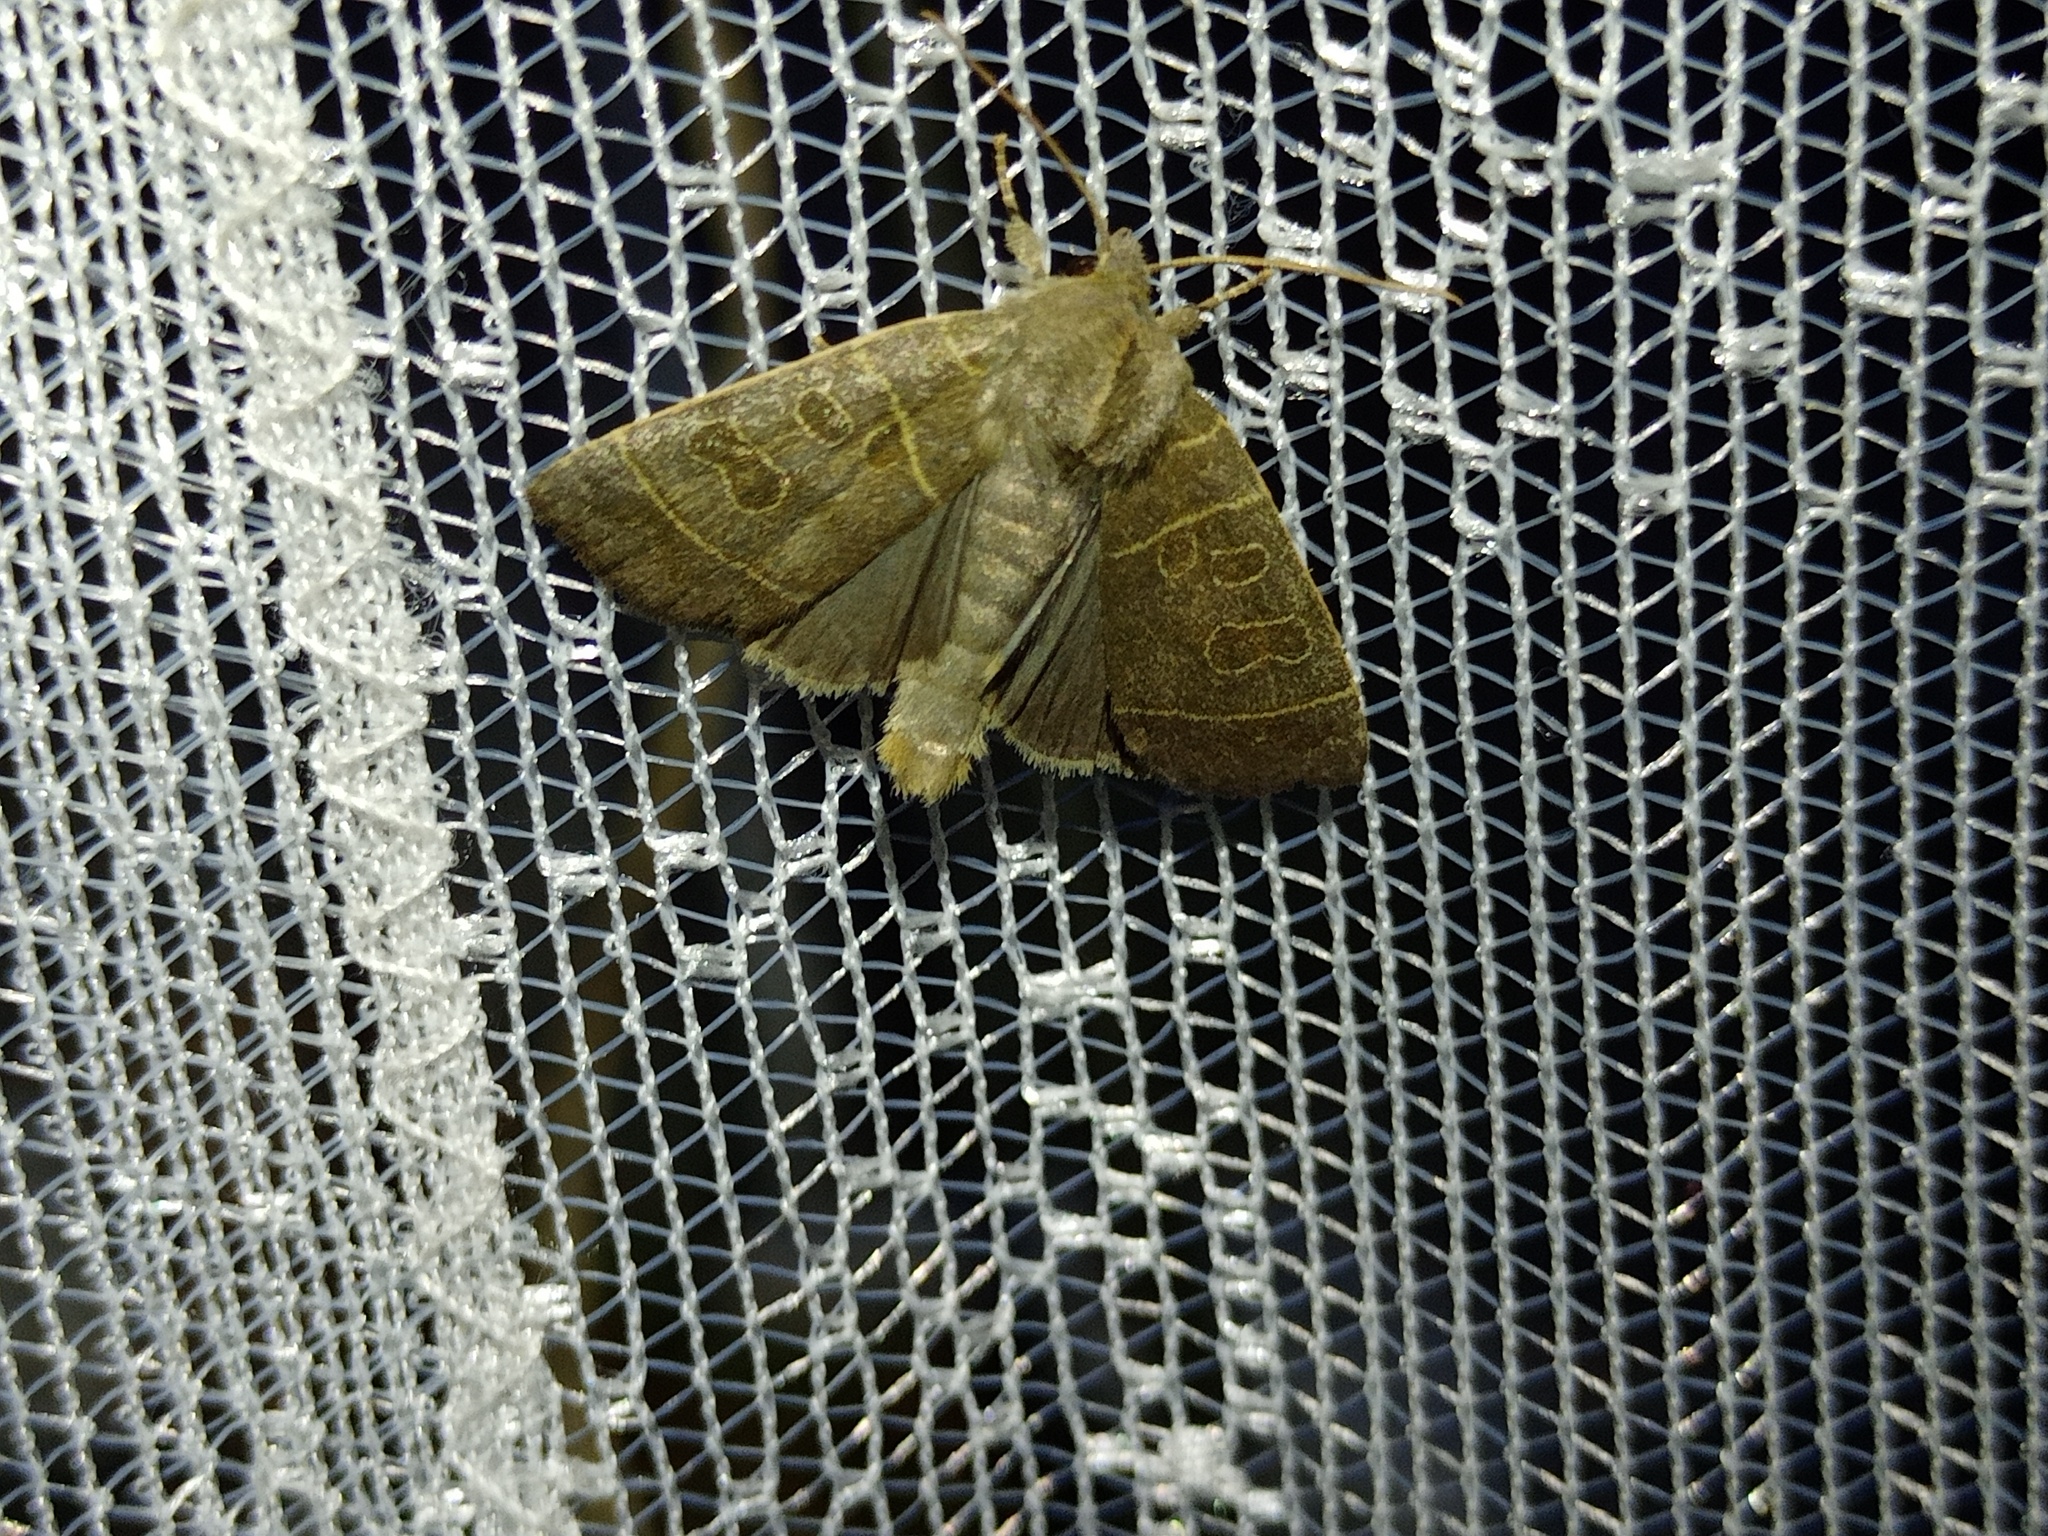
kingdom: Animalia
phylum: Arthropoda
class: Insecta
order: Lepidoptera
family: Noctuidae
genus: Ipimorpha
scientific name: Ipimorpha subtusa
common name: Olive
